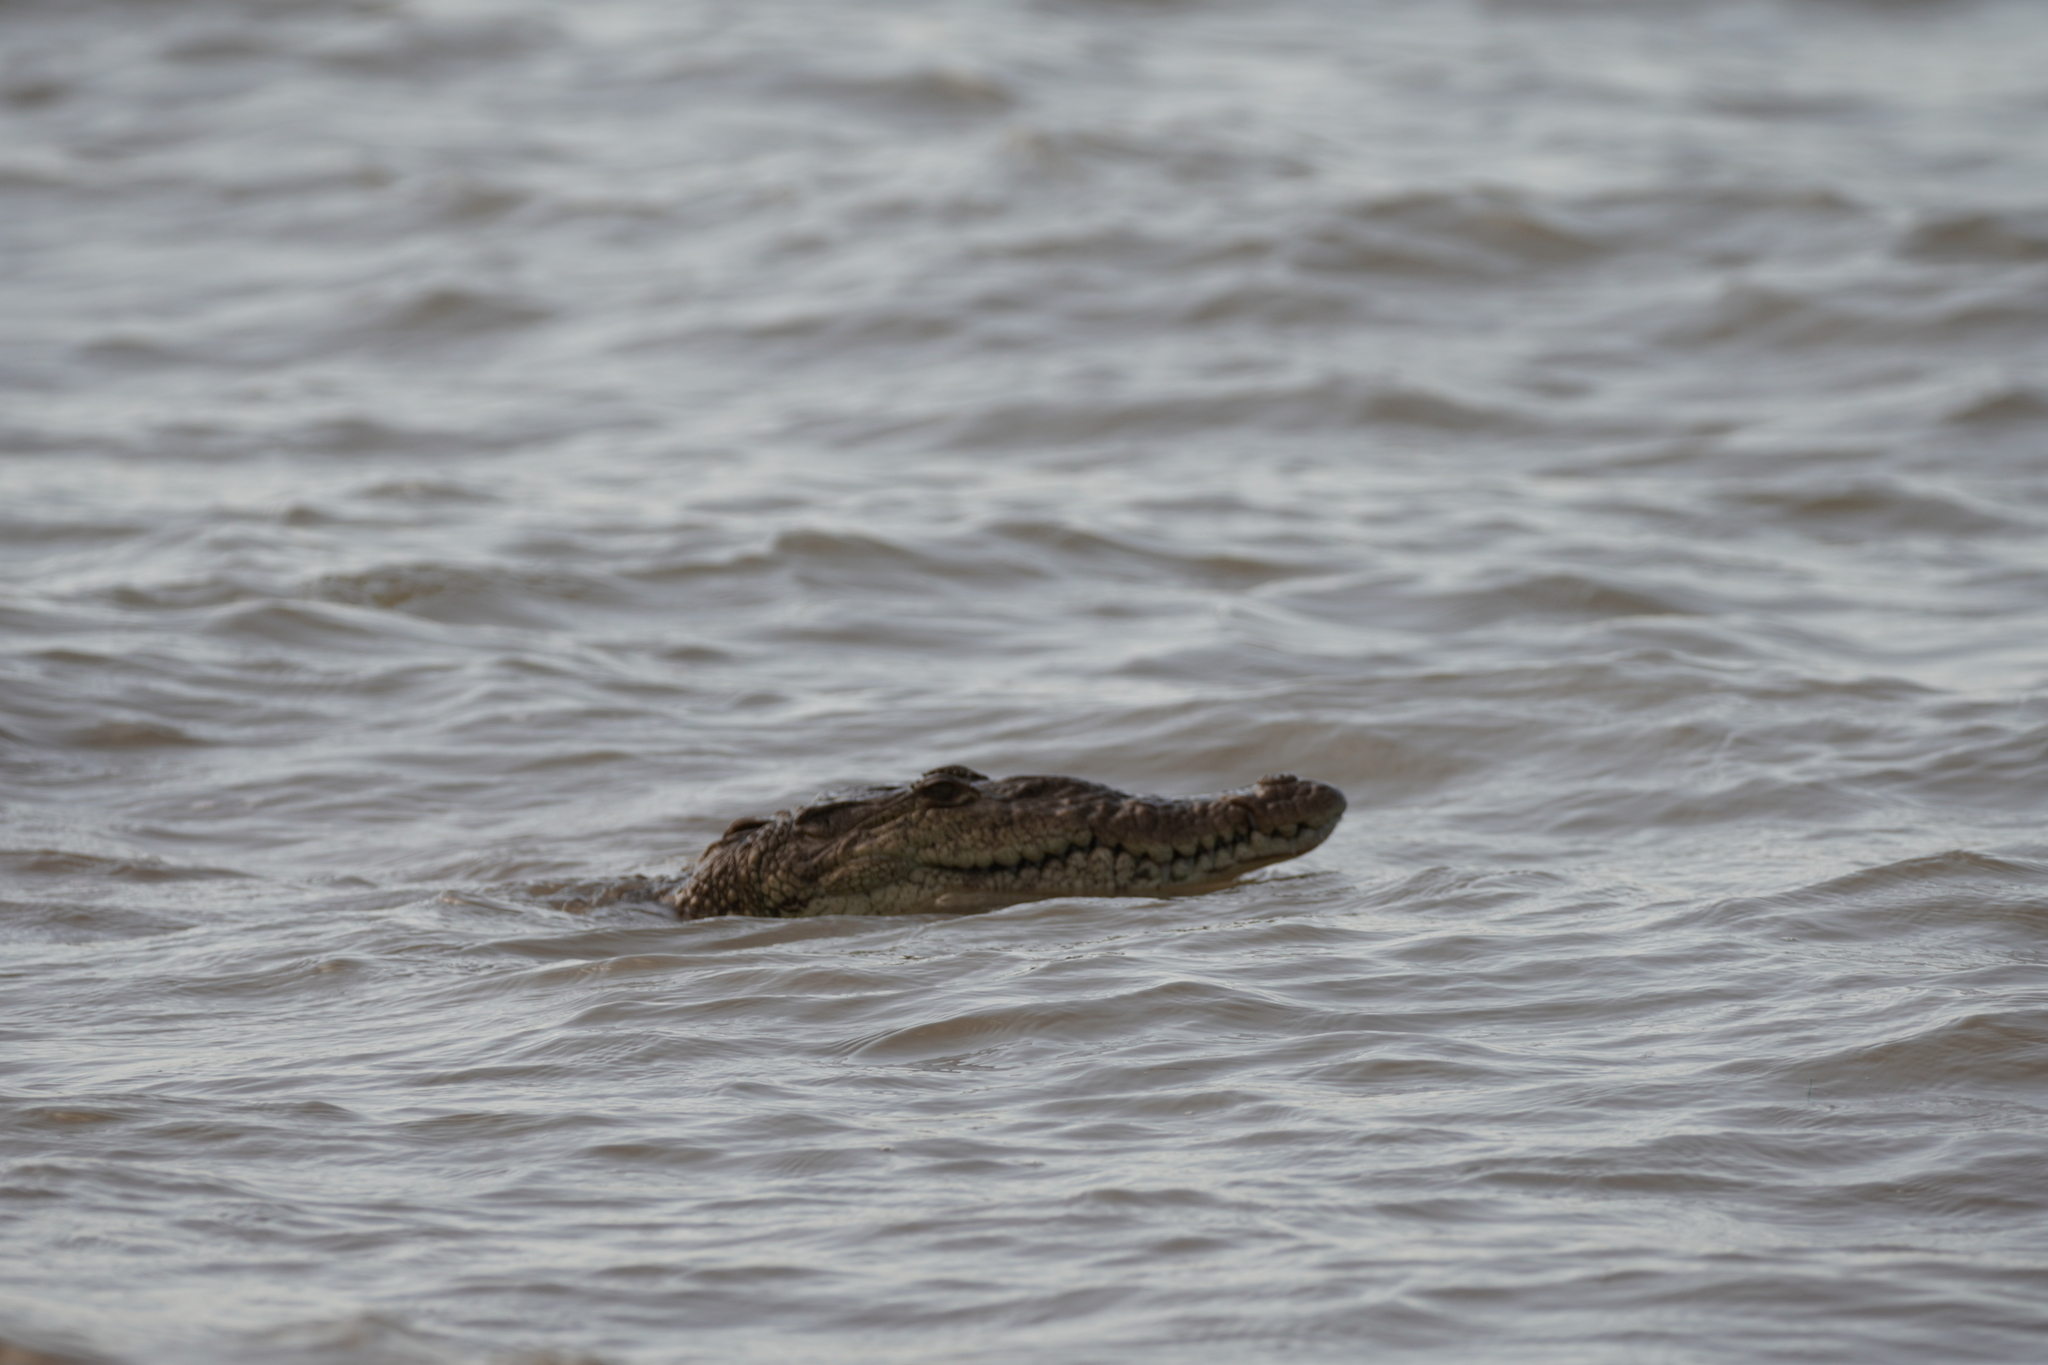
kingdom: Animalia
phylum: Chordata
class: Crocodylia
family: Crocodylidae
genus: Crocodylus
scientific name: Crocodylus moreletii
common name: Morelet's crocodile
